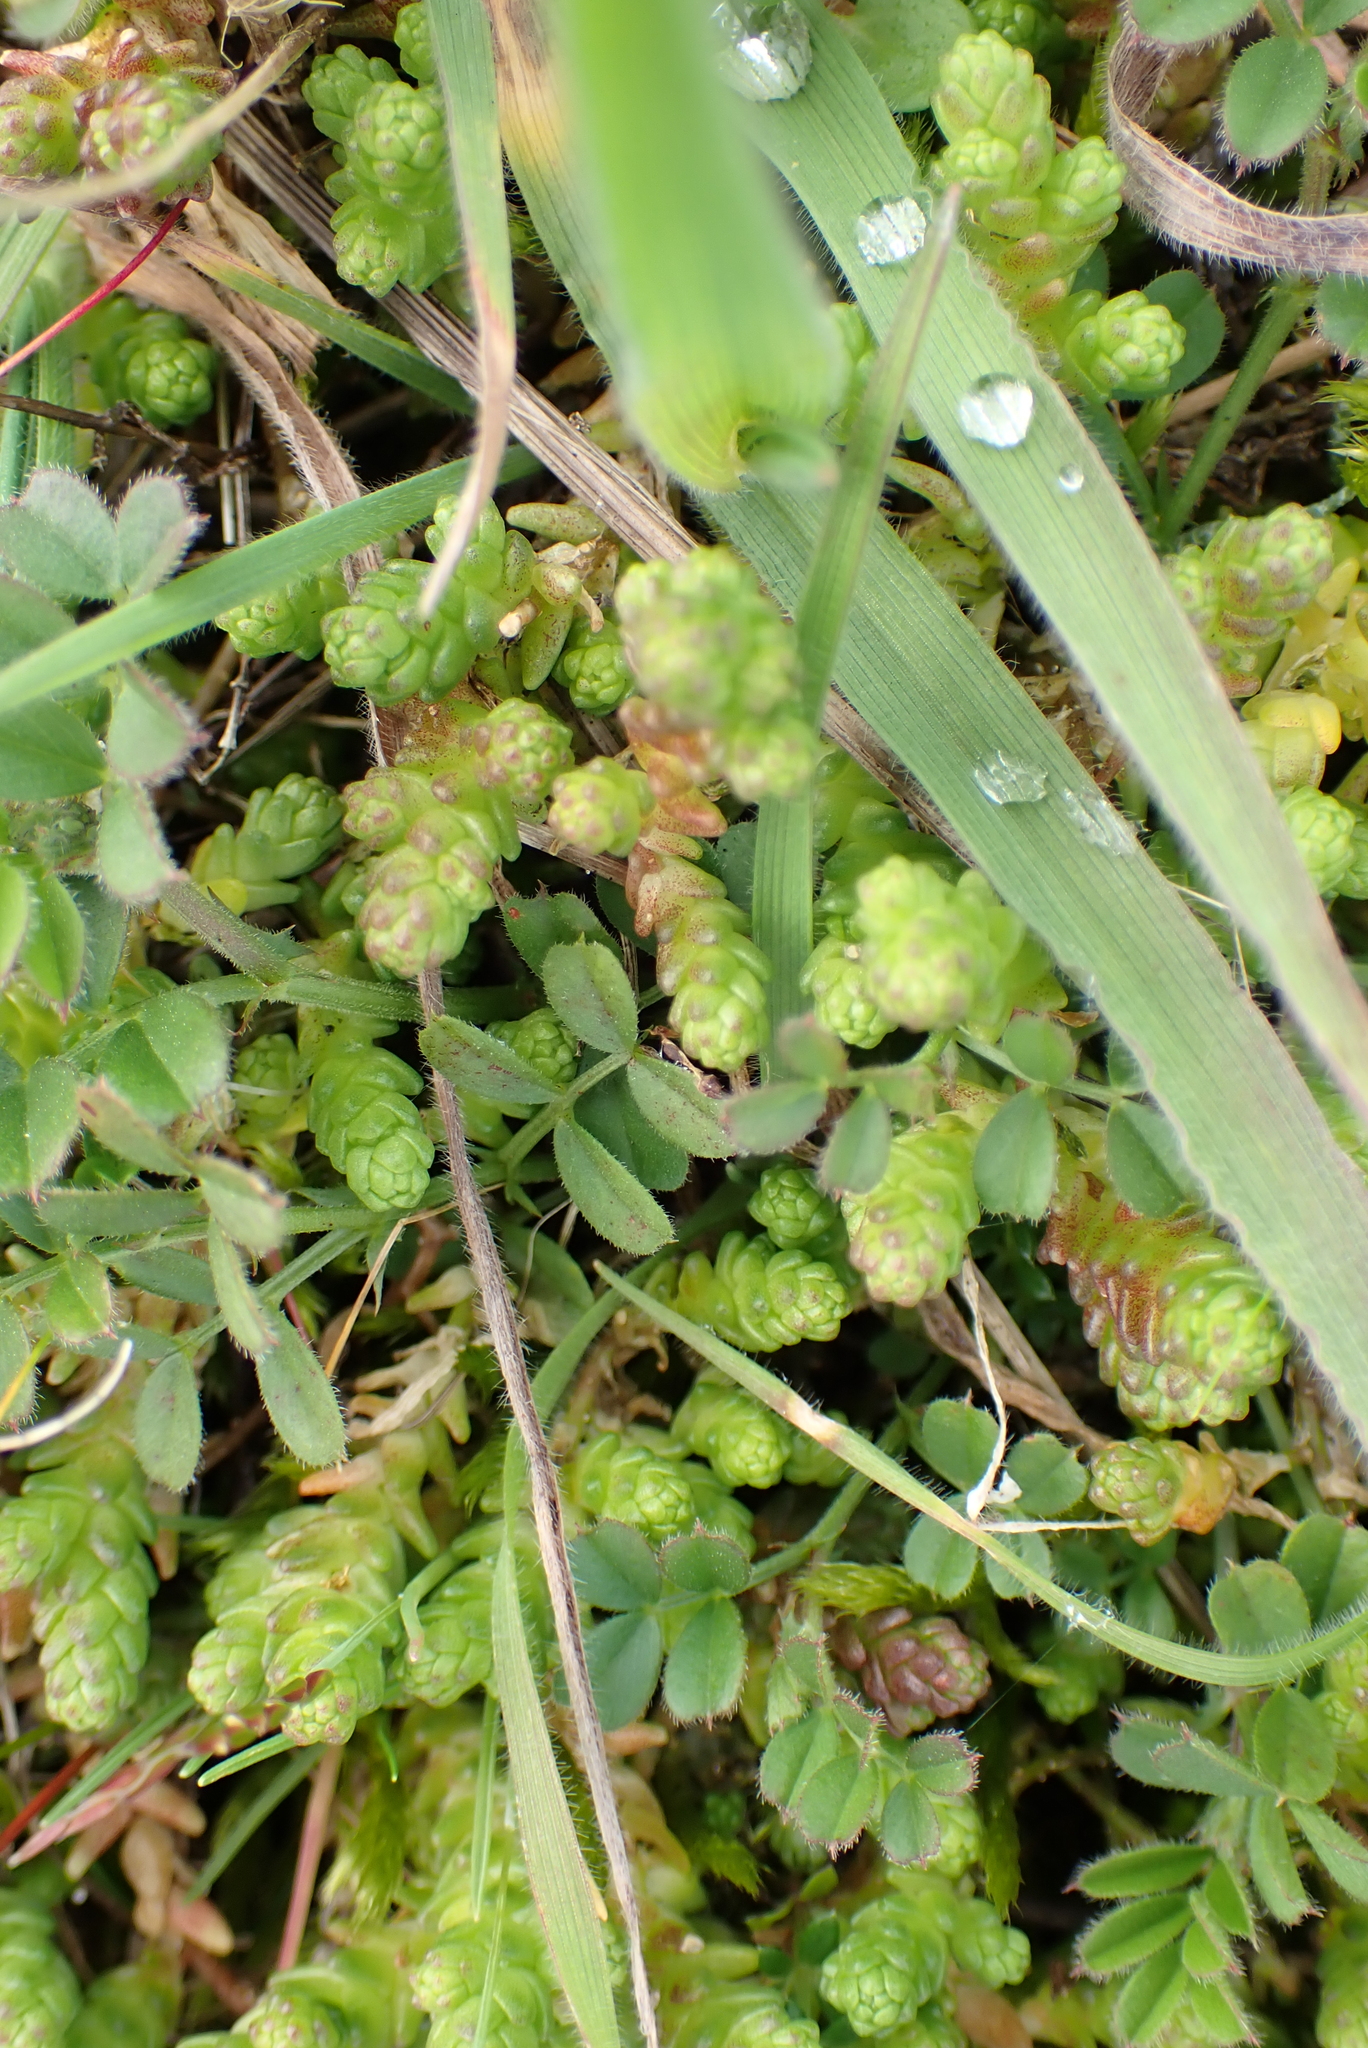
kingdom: Plantae
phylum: Tracheophyta
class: Magnoliopsida
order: Saxifragales
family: Crassulaceae
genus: Sedum
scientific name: Sedum acre
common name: Biting stonecrop
